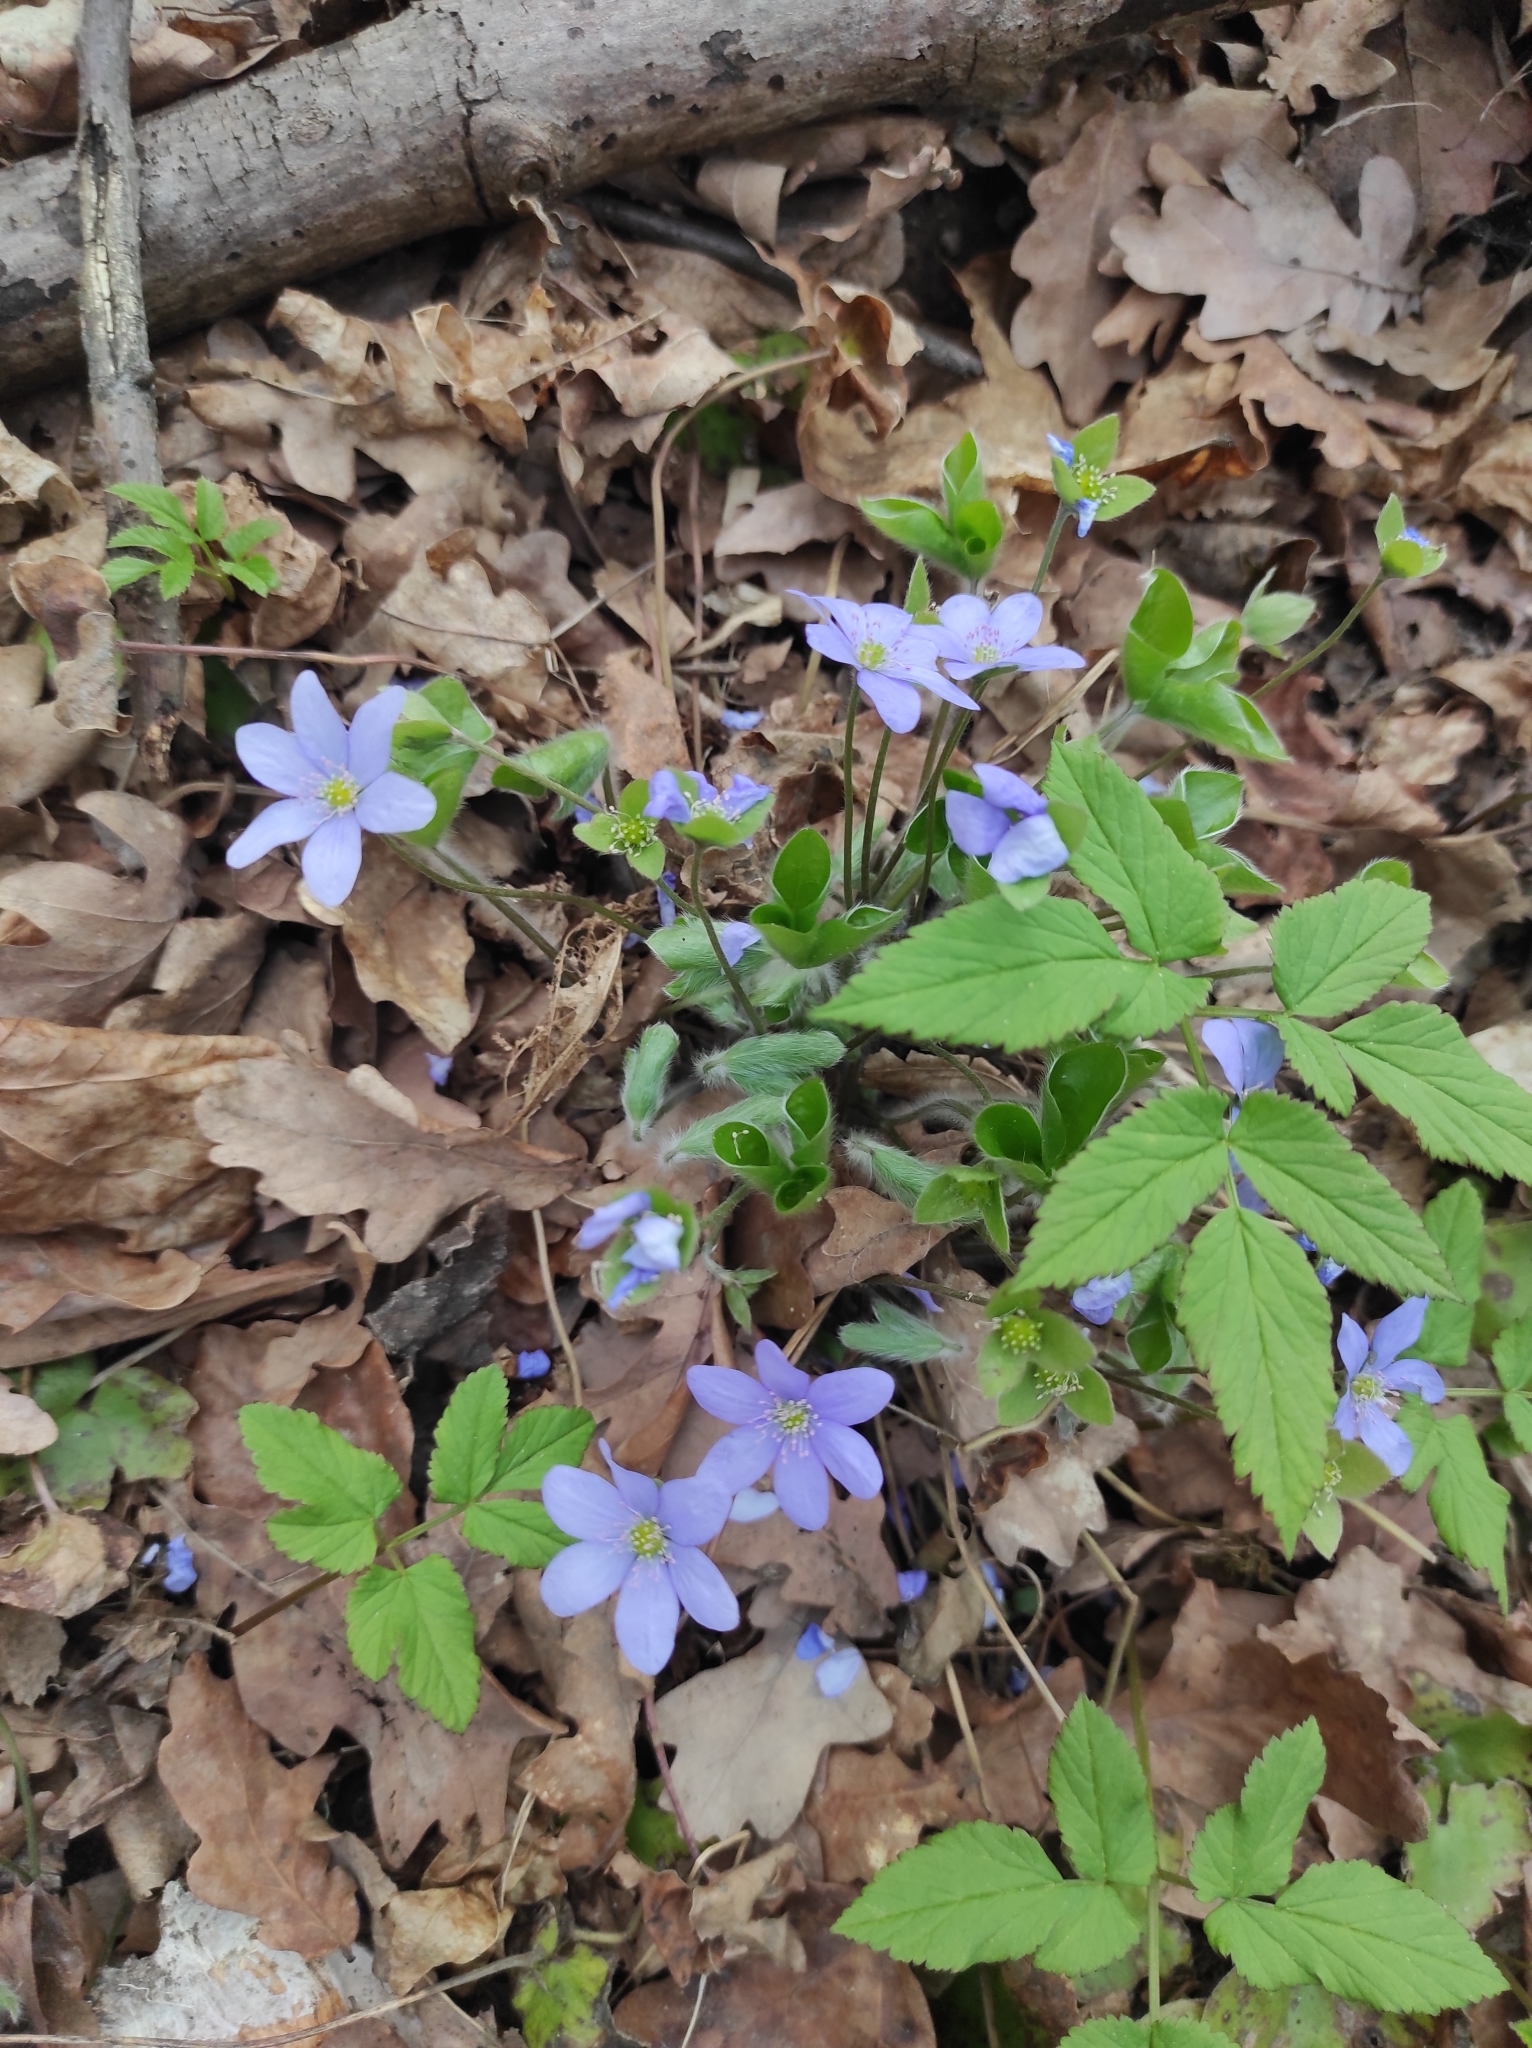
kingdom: Plantae
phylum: Tracheophyta
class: Magnoliopsida
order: Ranunculales
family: Ranunculaceae
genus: Hepatica
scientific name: Hepatica nobilis
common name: Liverleaf
